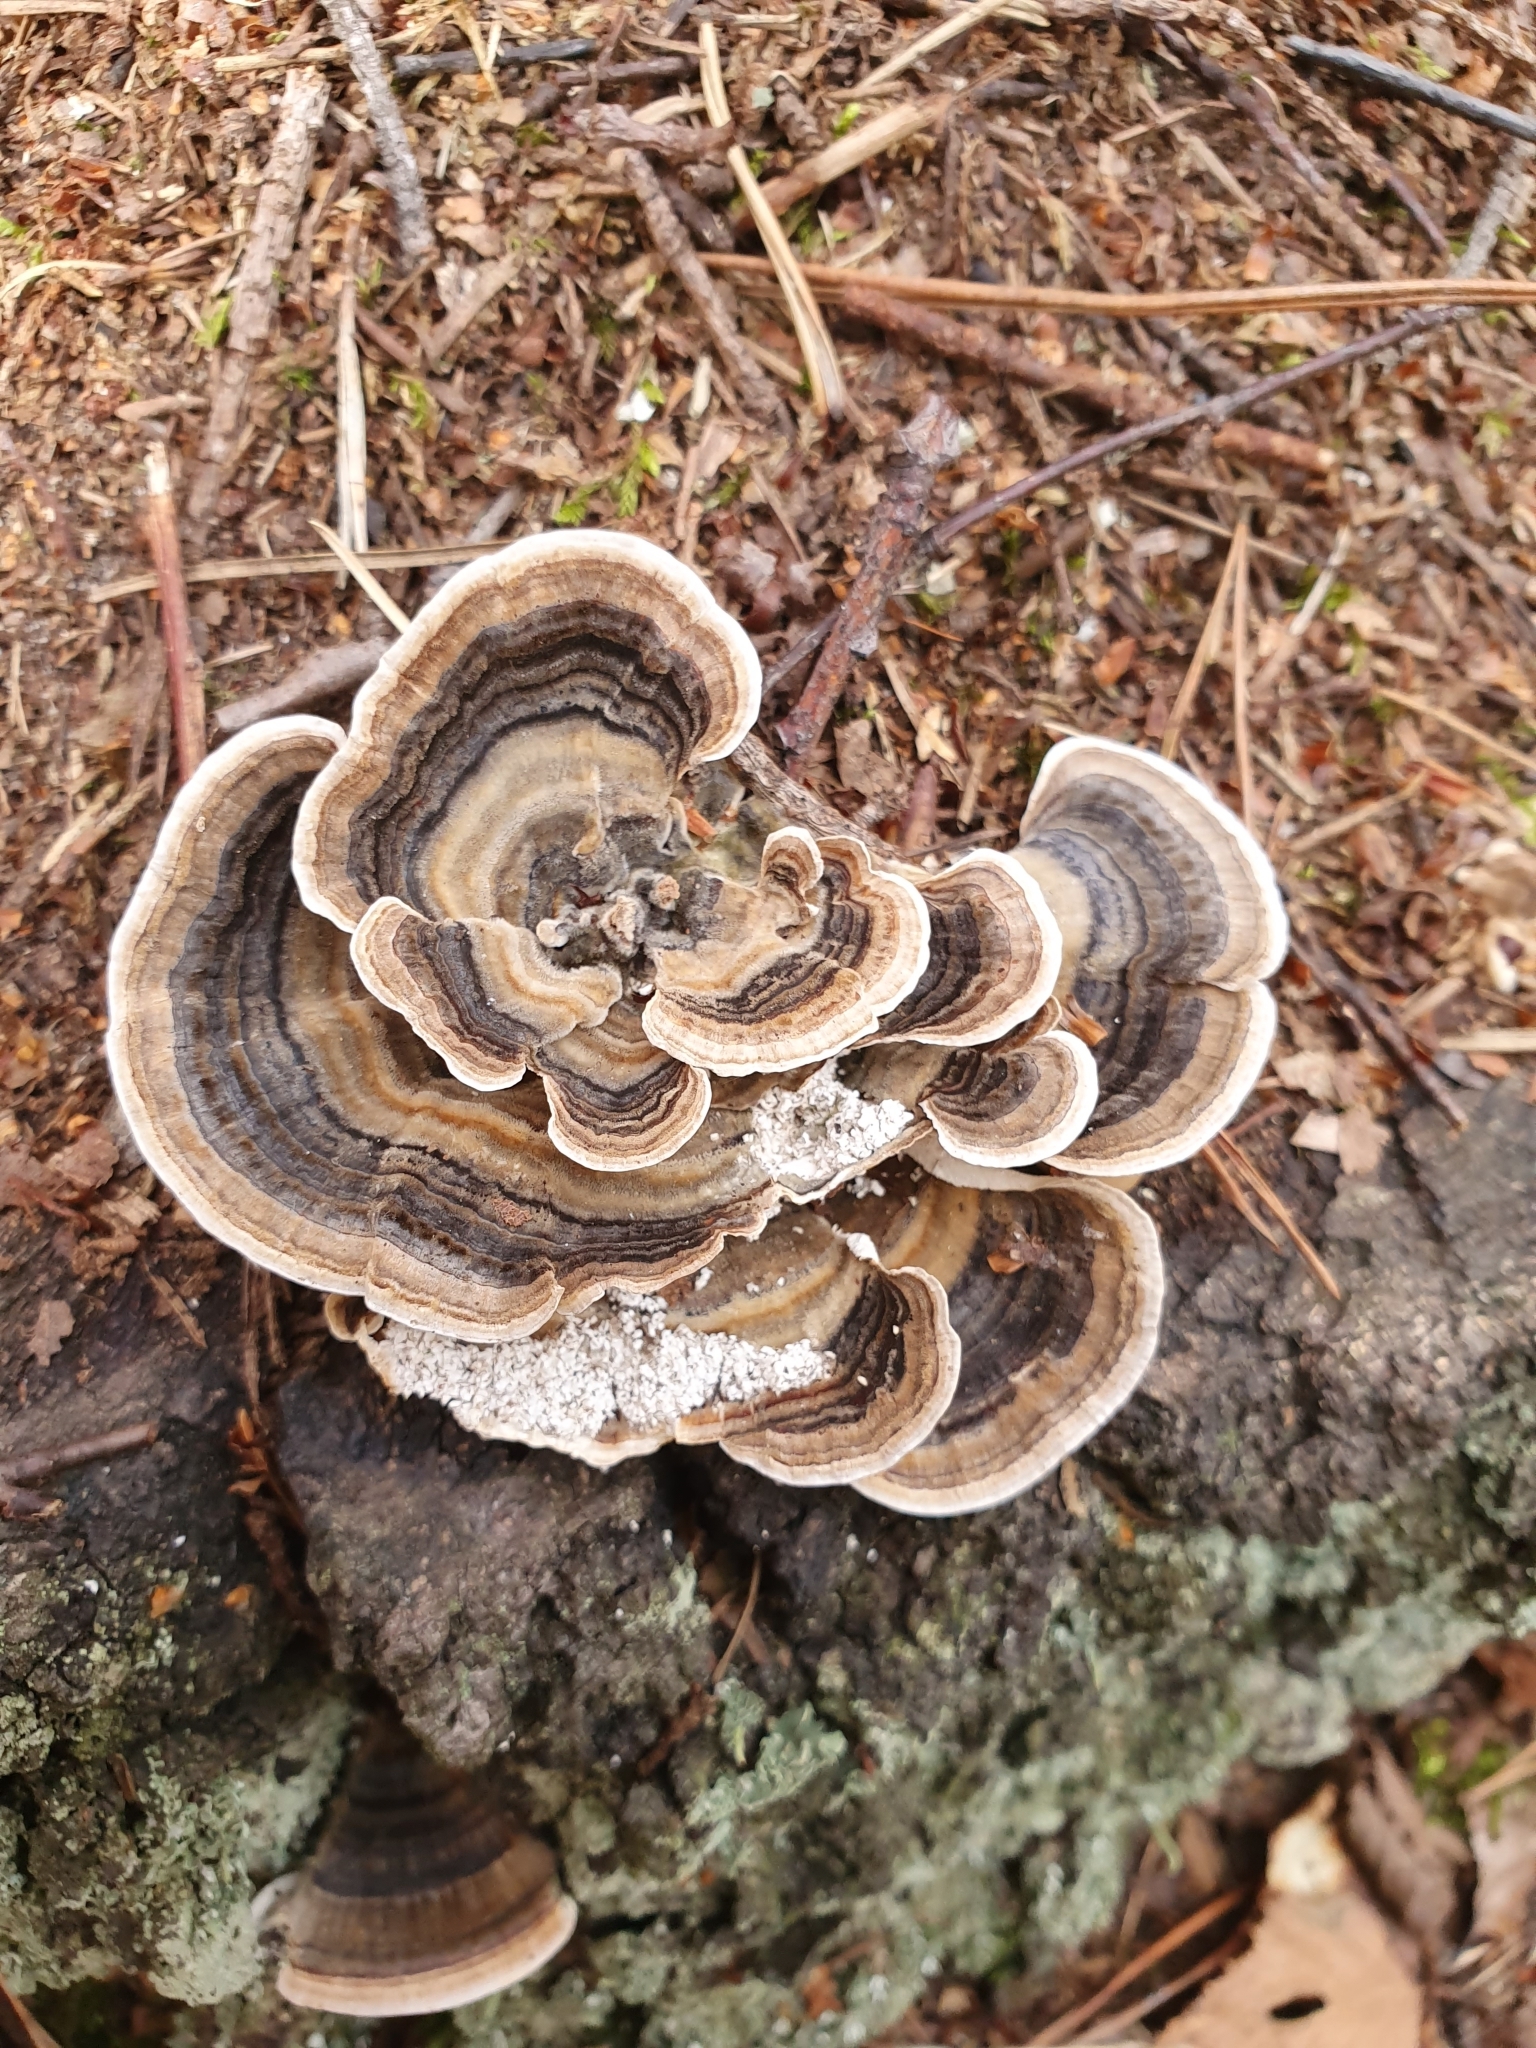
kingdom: Fungi
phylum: Basidiomycota
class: Agaricomycetes
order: Polyporales
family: Polyporaceae
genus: Trametes
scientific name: Trametes versicolor
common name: Turkeytail
